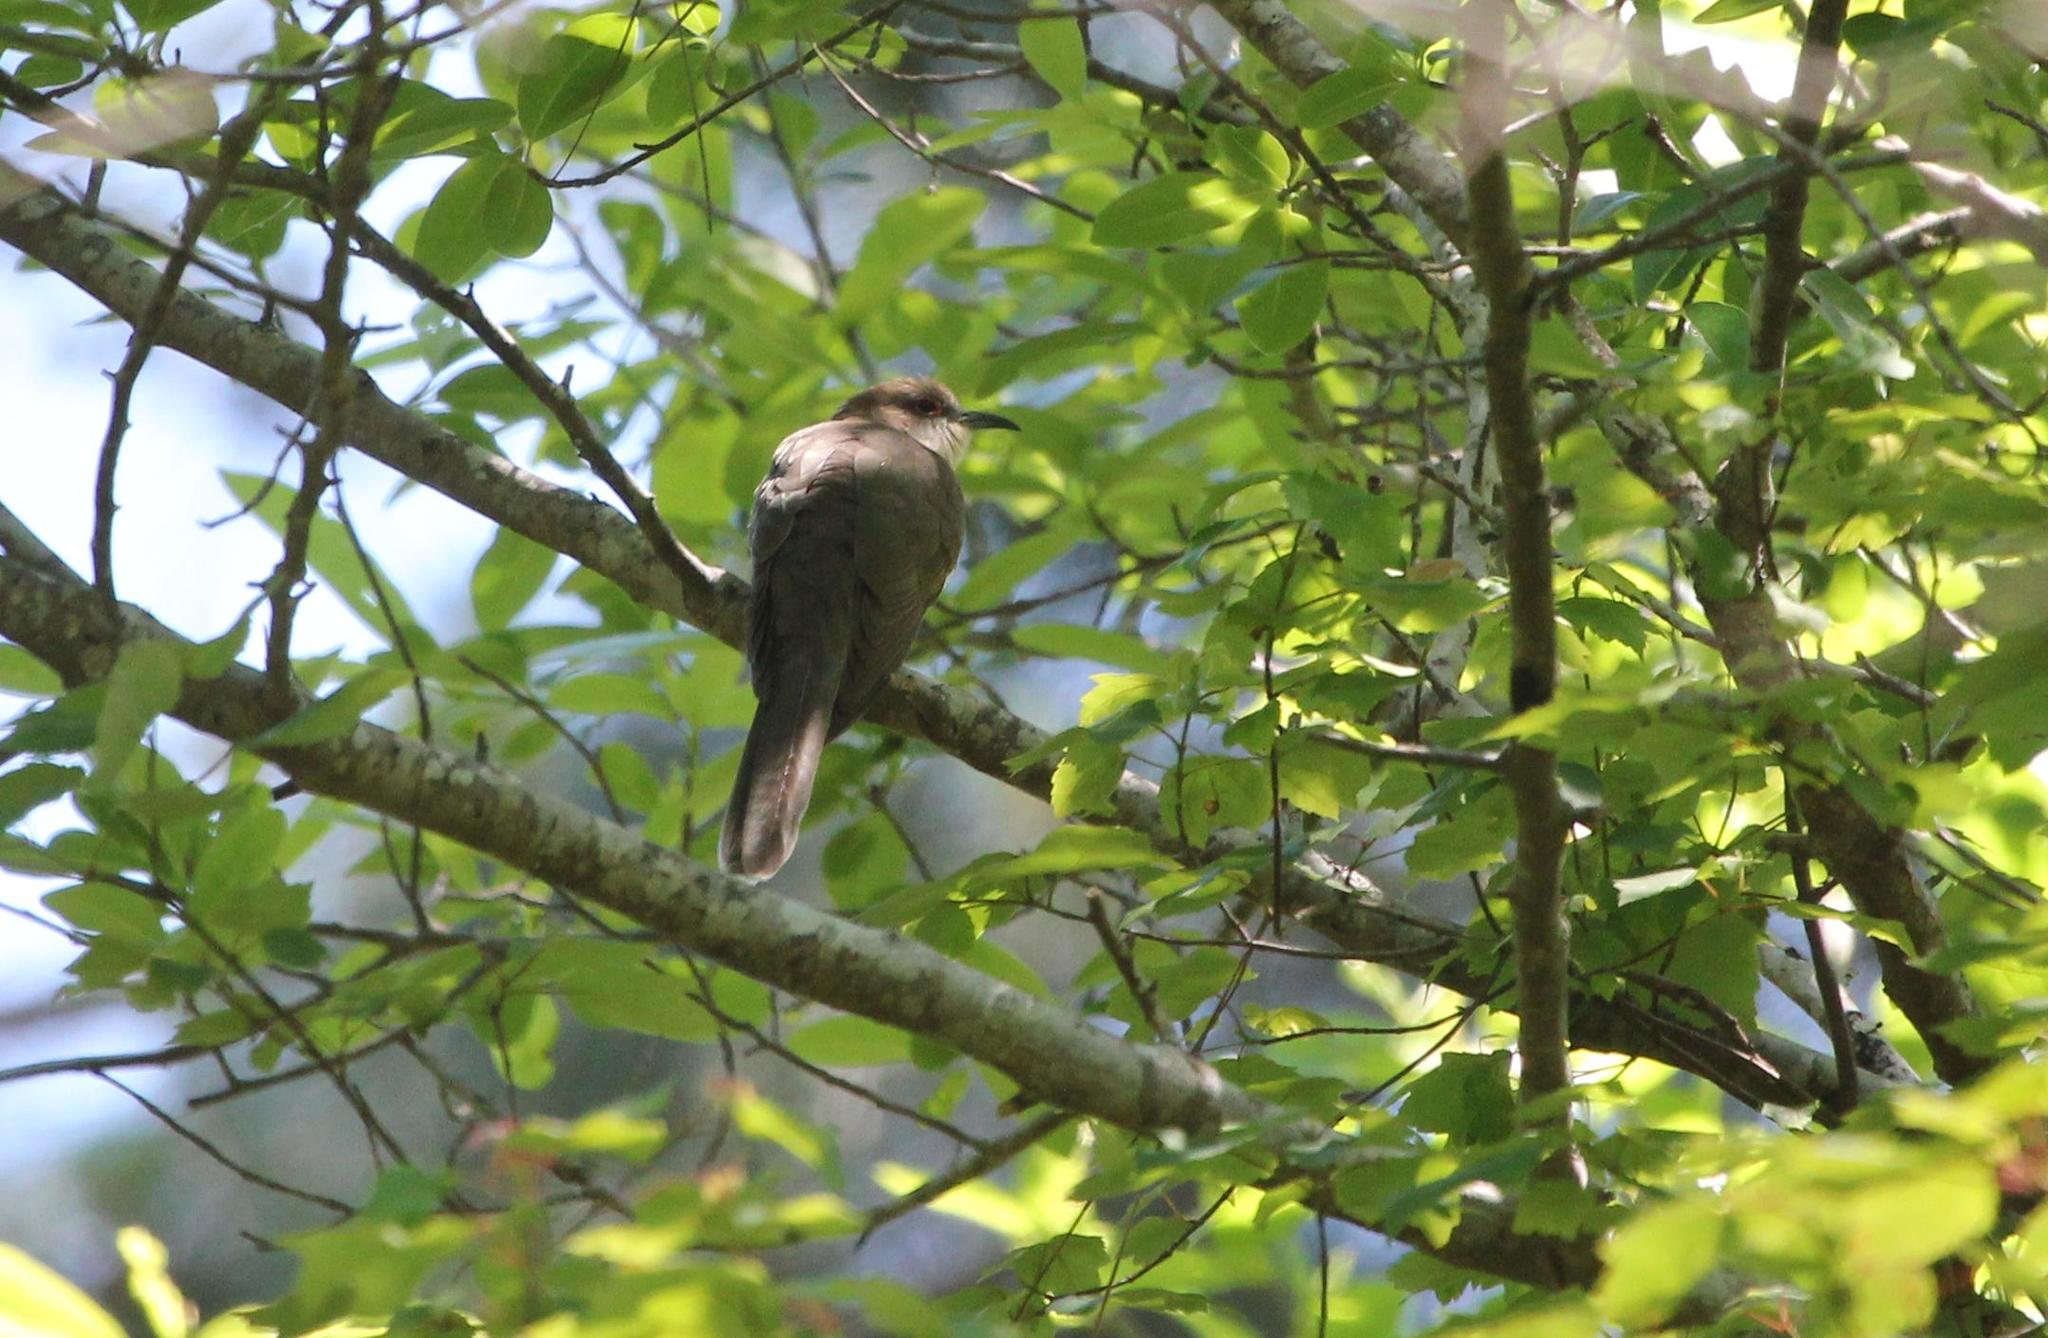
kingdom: Animalia
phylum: Chordata
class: Aves
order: Cuculiformes
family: Cuculidae
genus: Coccyzus
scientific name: Coccyzus erythropthalmus
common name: Black-billed cuckoo
